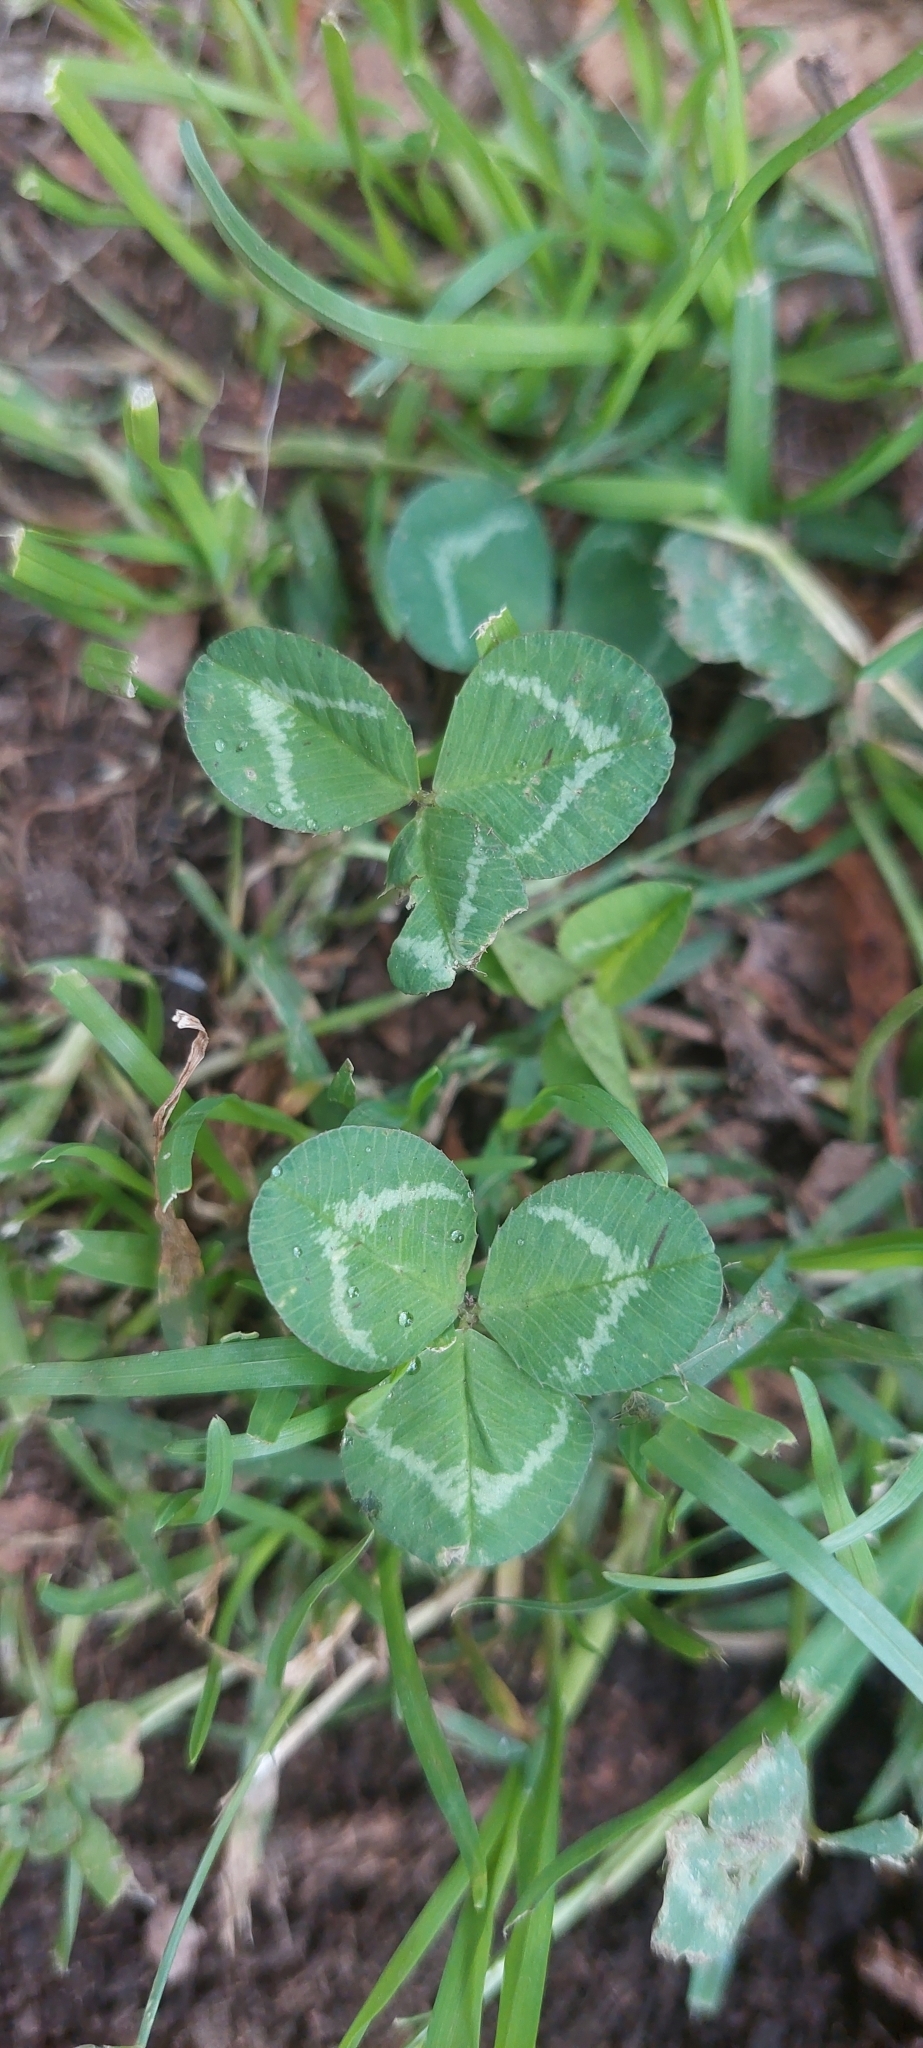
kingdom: Plantae
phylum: Tracheophyta
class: Magnoliopsida
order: Fabales
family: Fabaceae
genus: Trifolium
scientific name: Trifolium repens
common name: White clover
